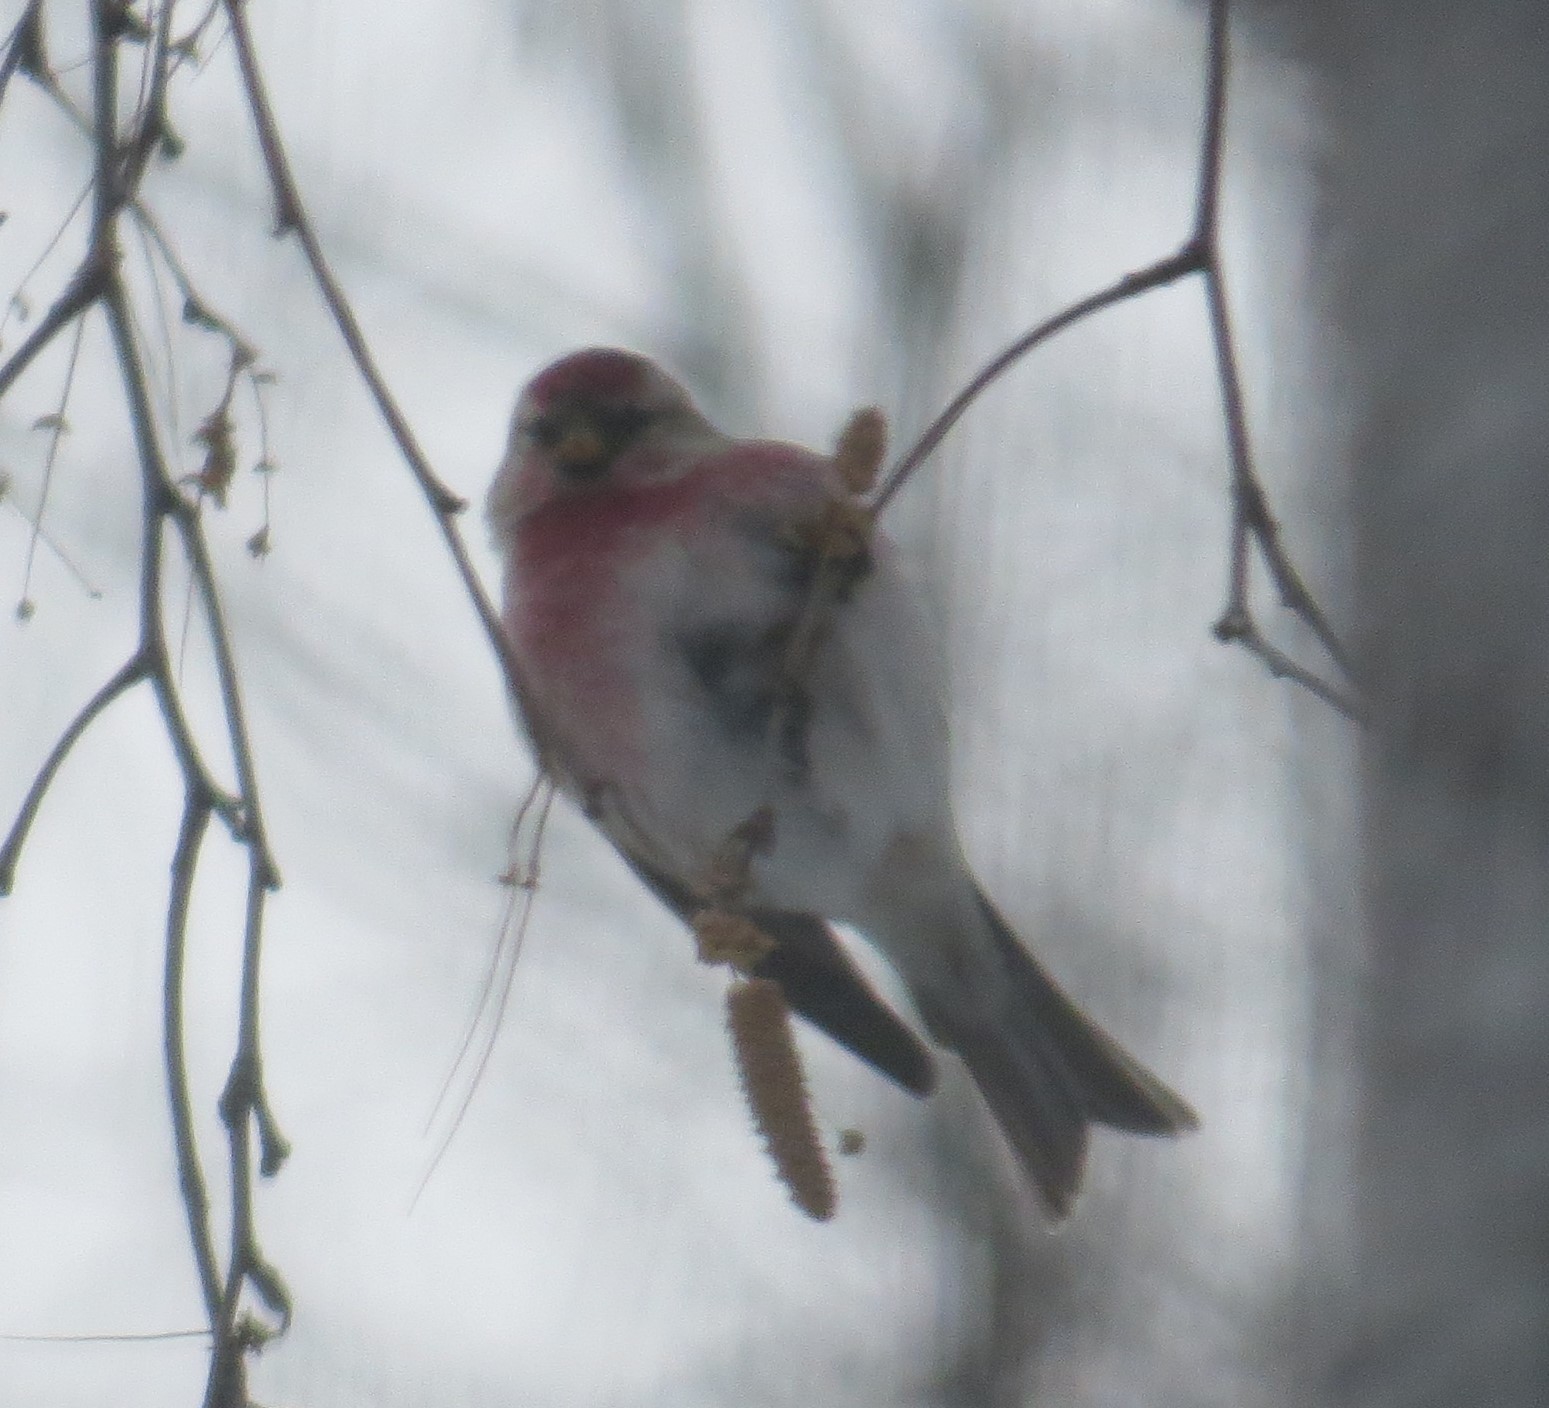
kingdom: Animalia
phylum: Chordata
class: Aves
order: Passeriformes
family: Fringillidae
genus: Acanthis
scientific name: Acanthis flammea
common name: Common redpoll
